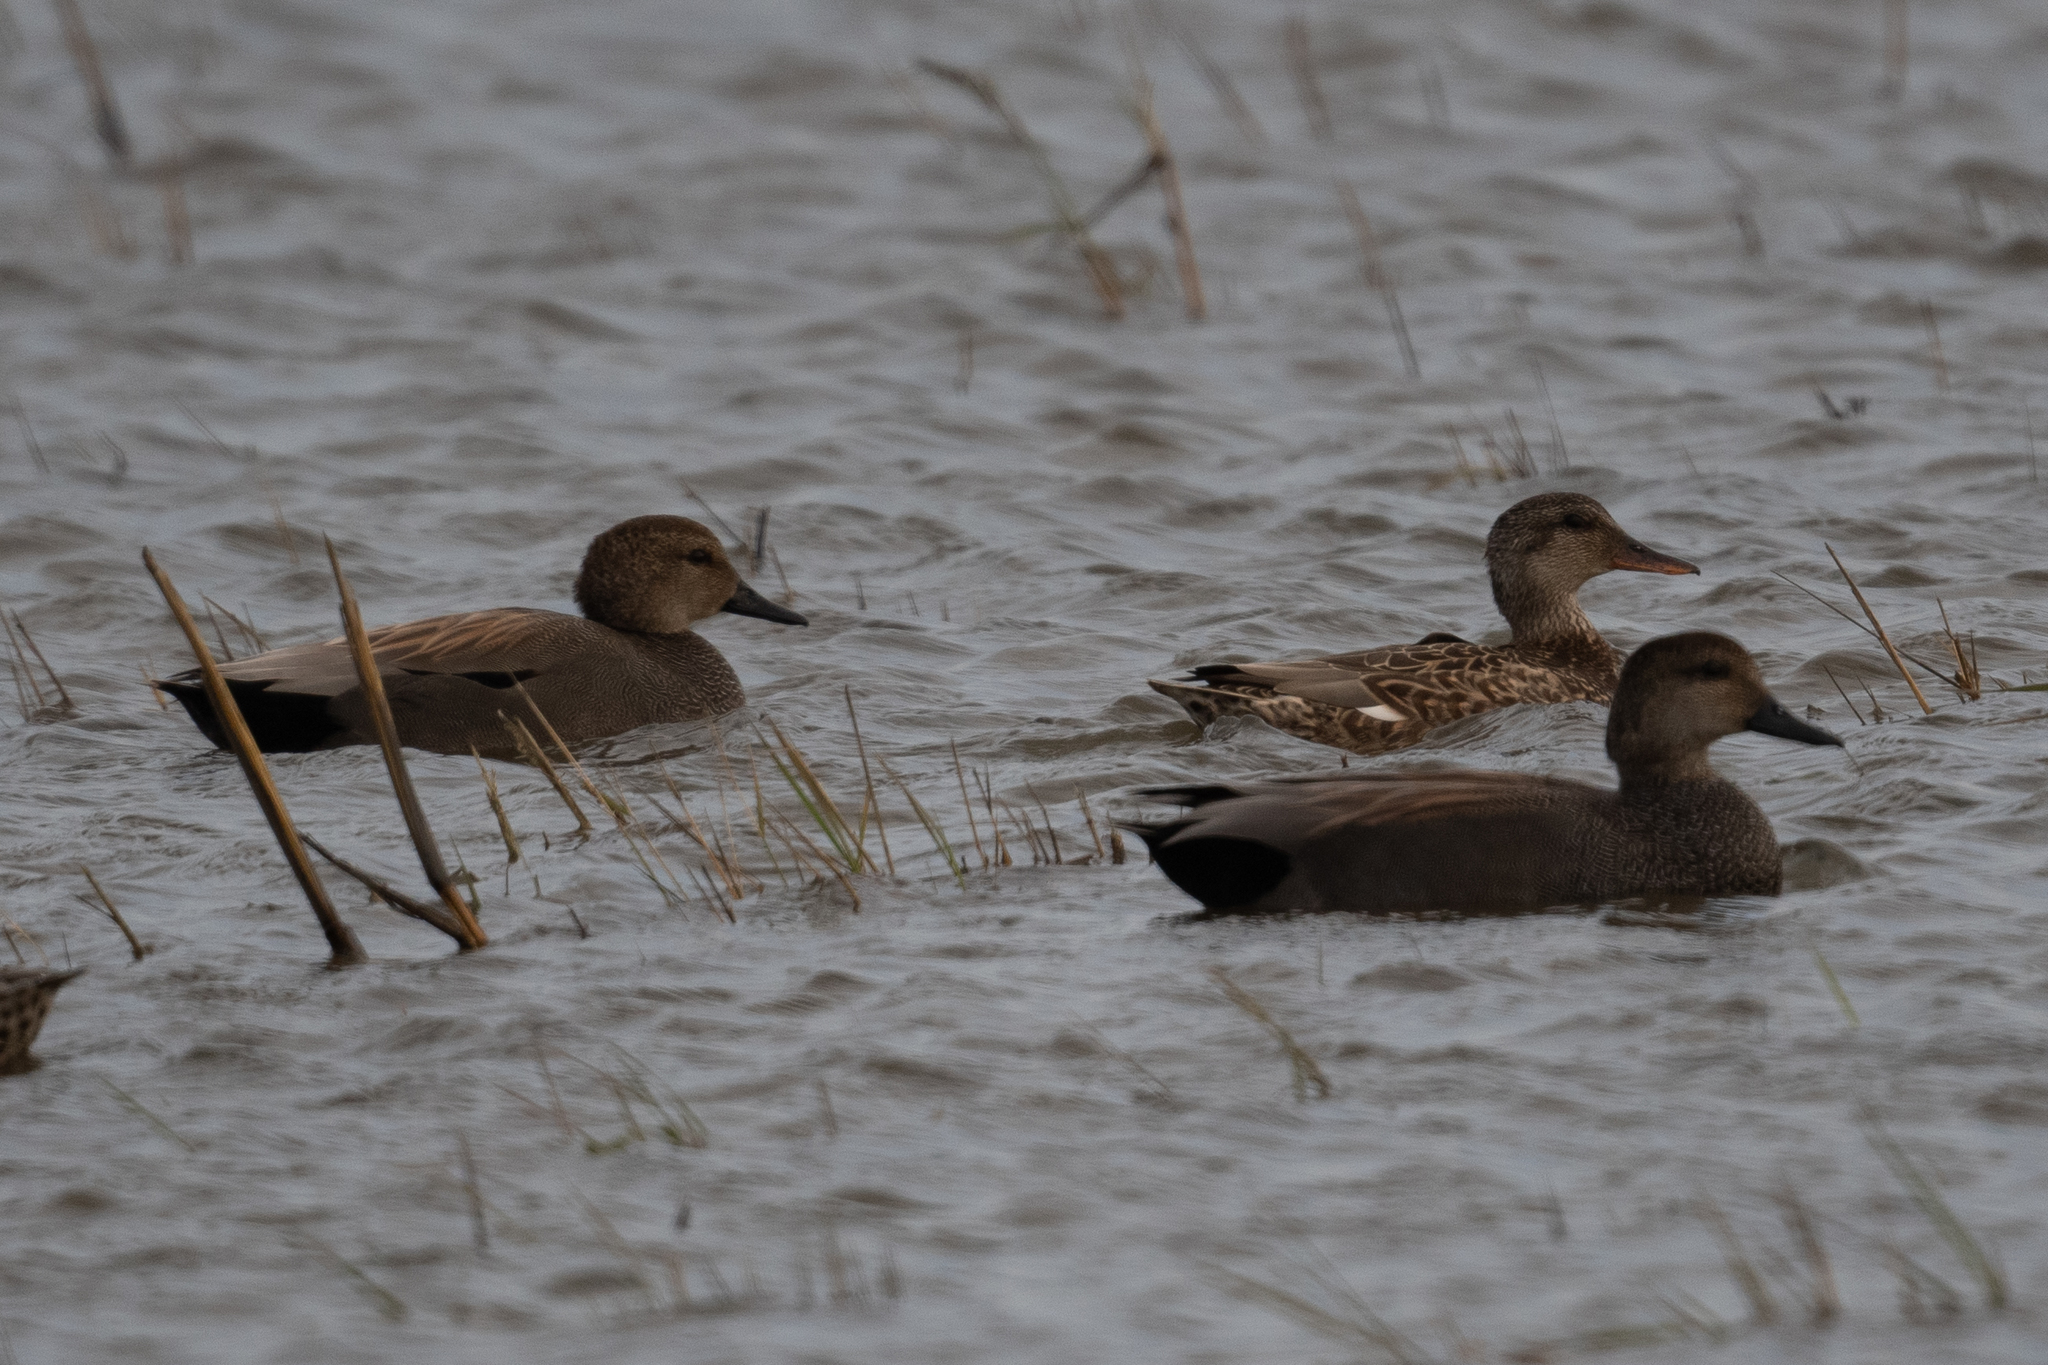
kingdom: Animalia
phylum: Chordata
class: Aves
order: Anseriformes
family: Anatidae
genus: Mareca
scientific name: Mareca strepera
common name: Gadwall
